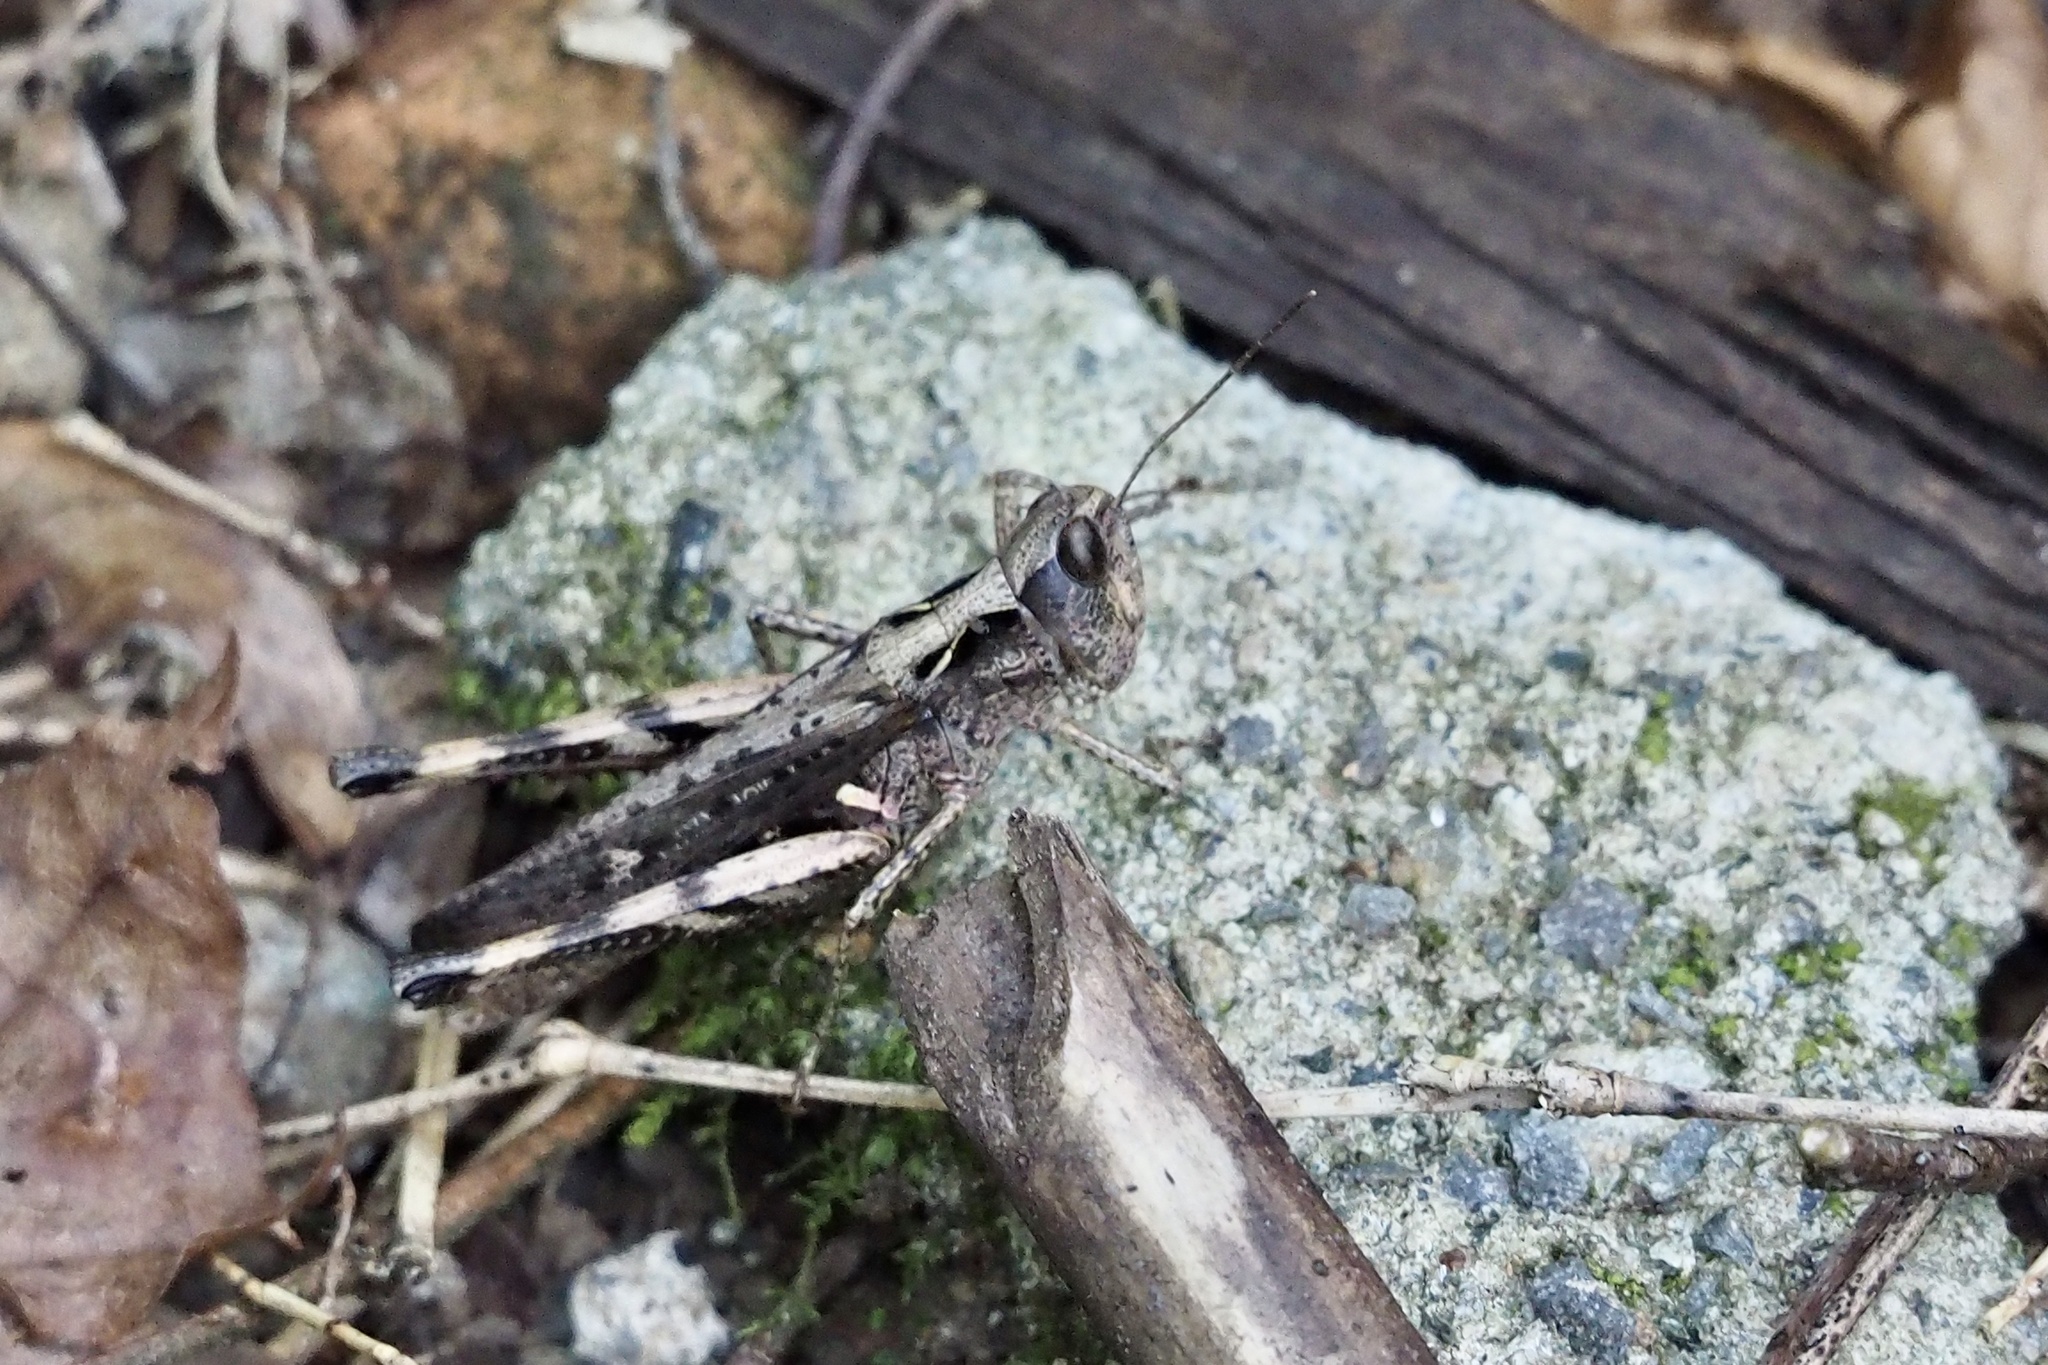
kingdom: Animalia
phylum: Arthropoda
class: Insecta
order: Orthoptera
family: Acrididae
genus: Stenobothrus
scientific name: Stenobothrus fumatus
